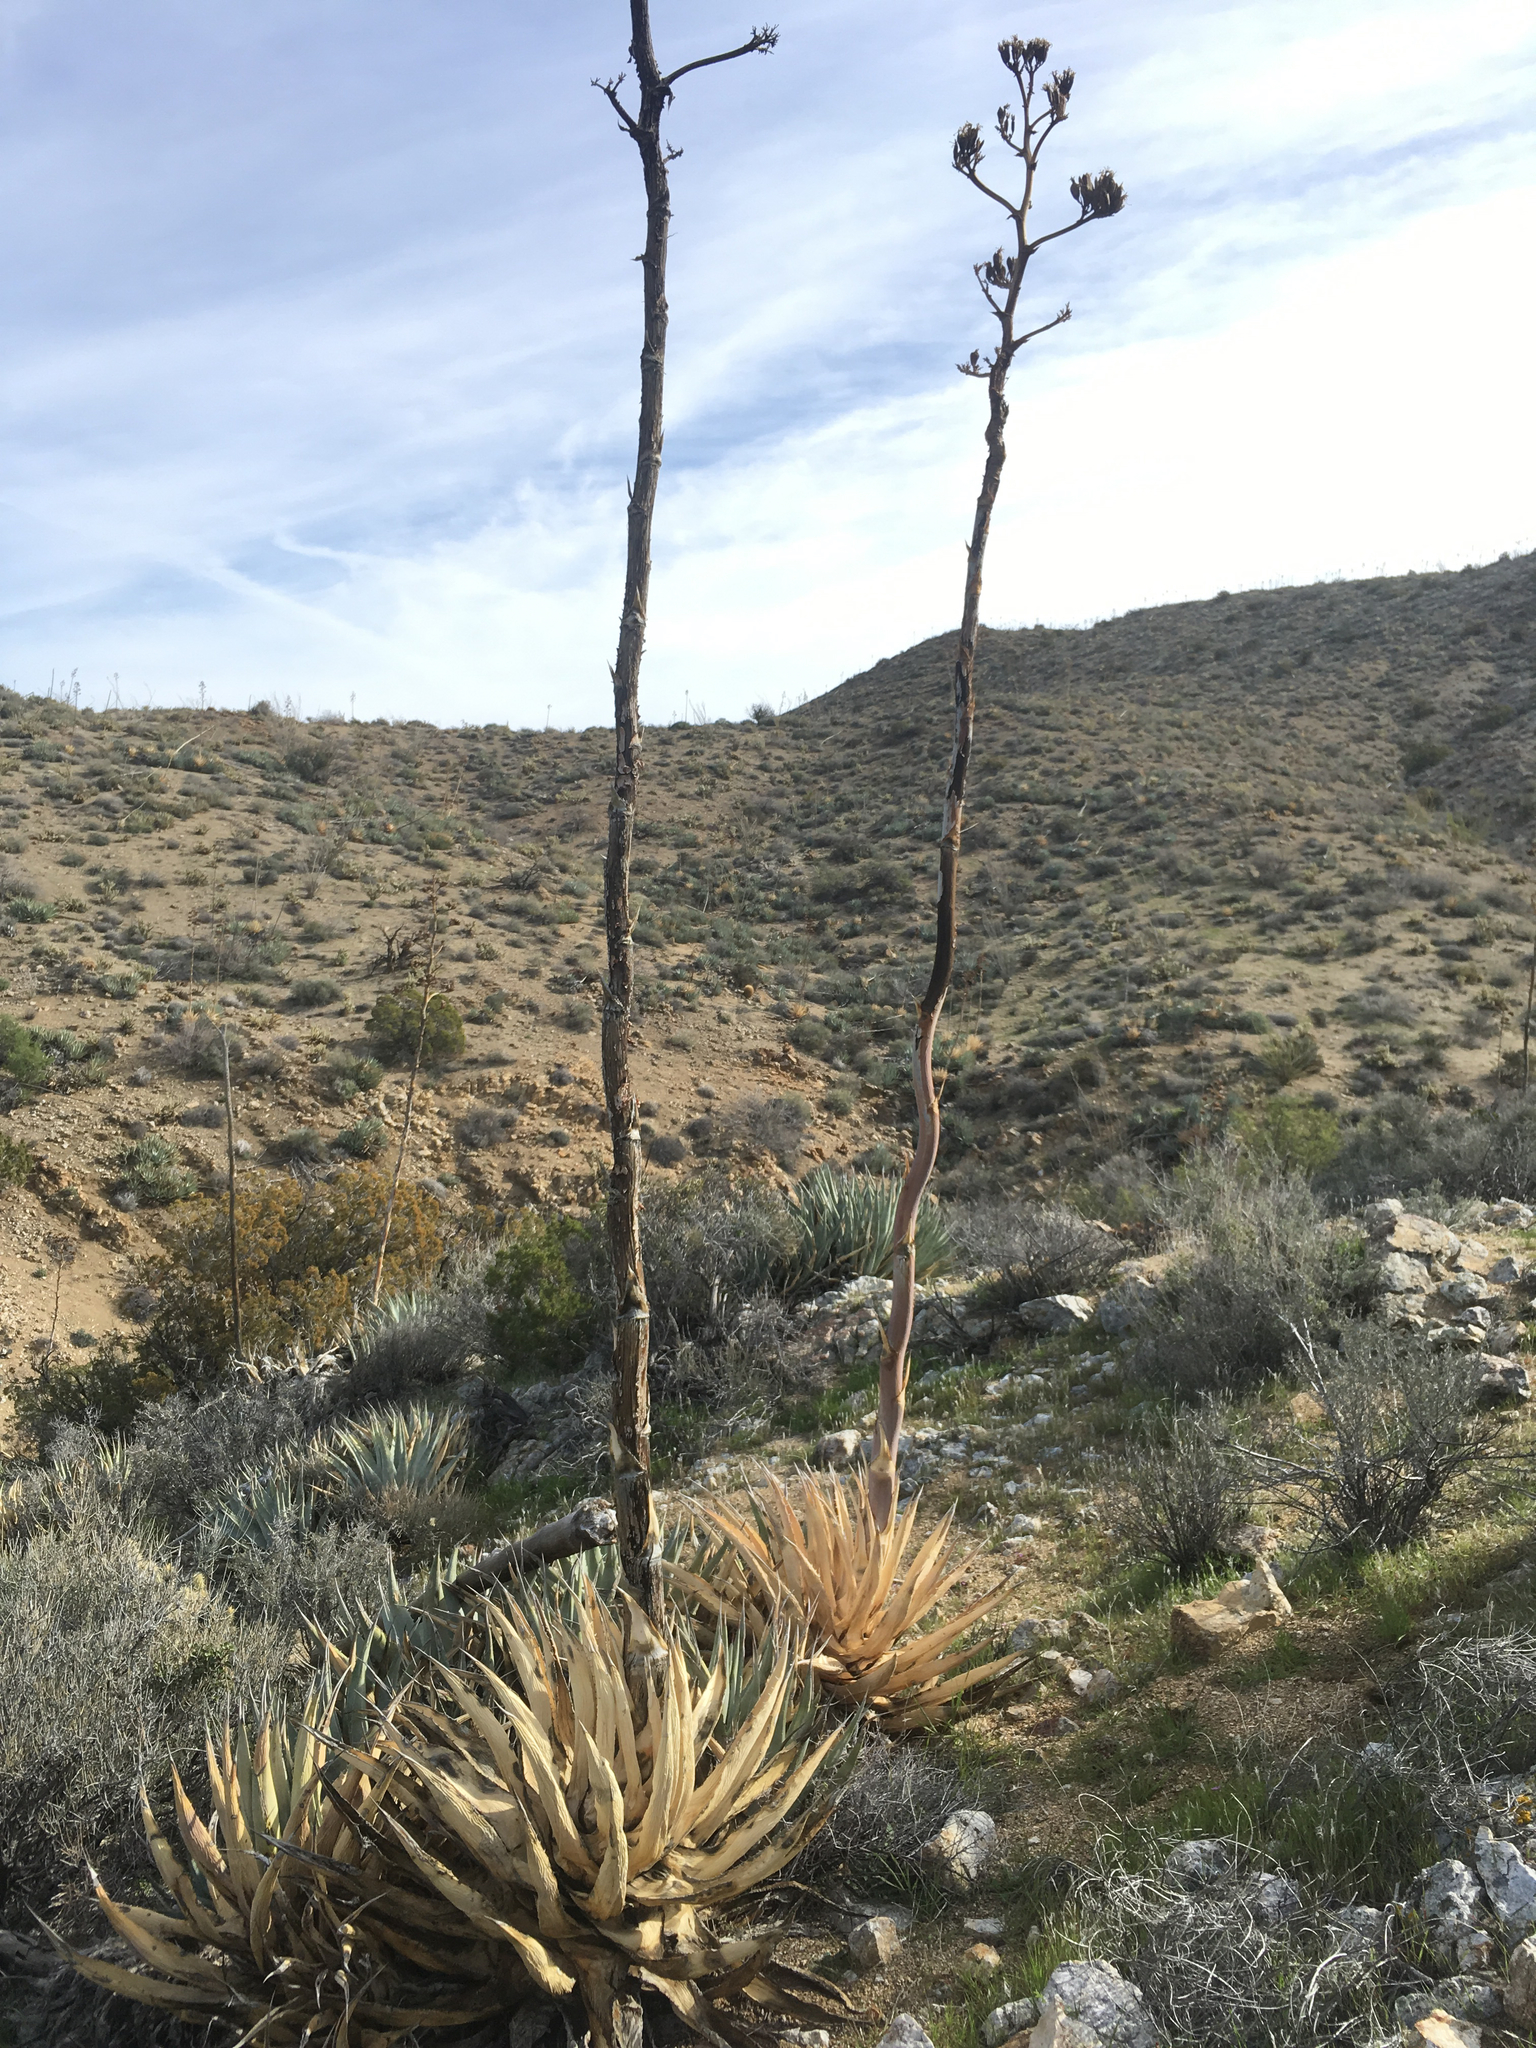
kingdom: Plantae
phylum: Tracheophyta
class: Liliopsida
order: Asparagales
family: Asparagaceae
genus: Agave
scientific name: Agave deserti
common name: Desert agave
